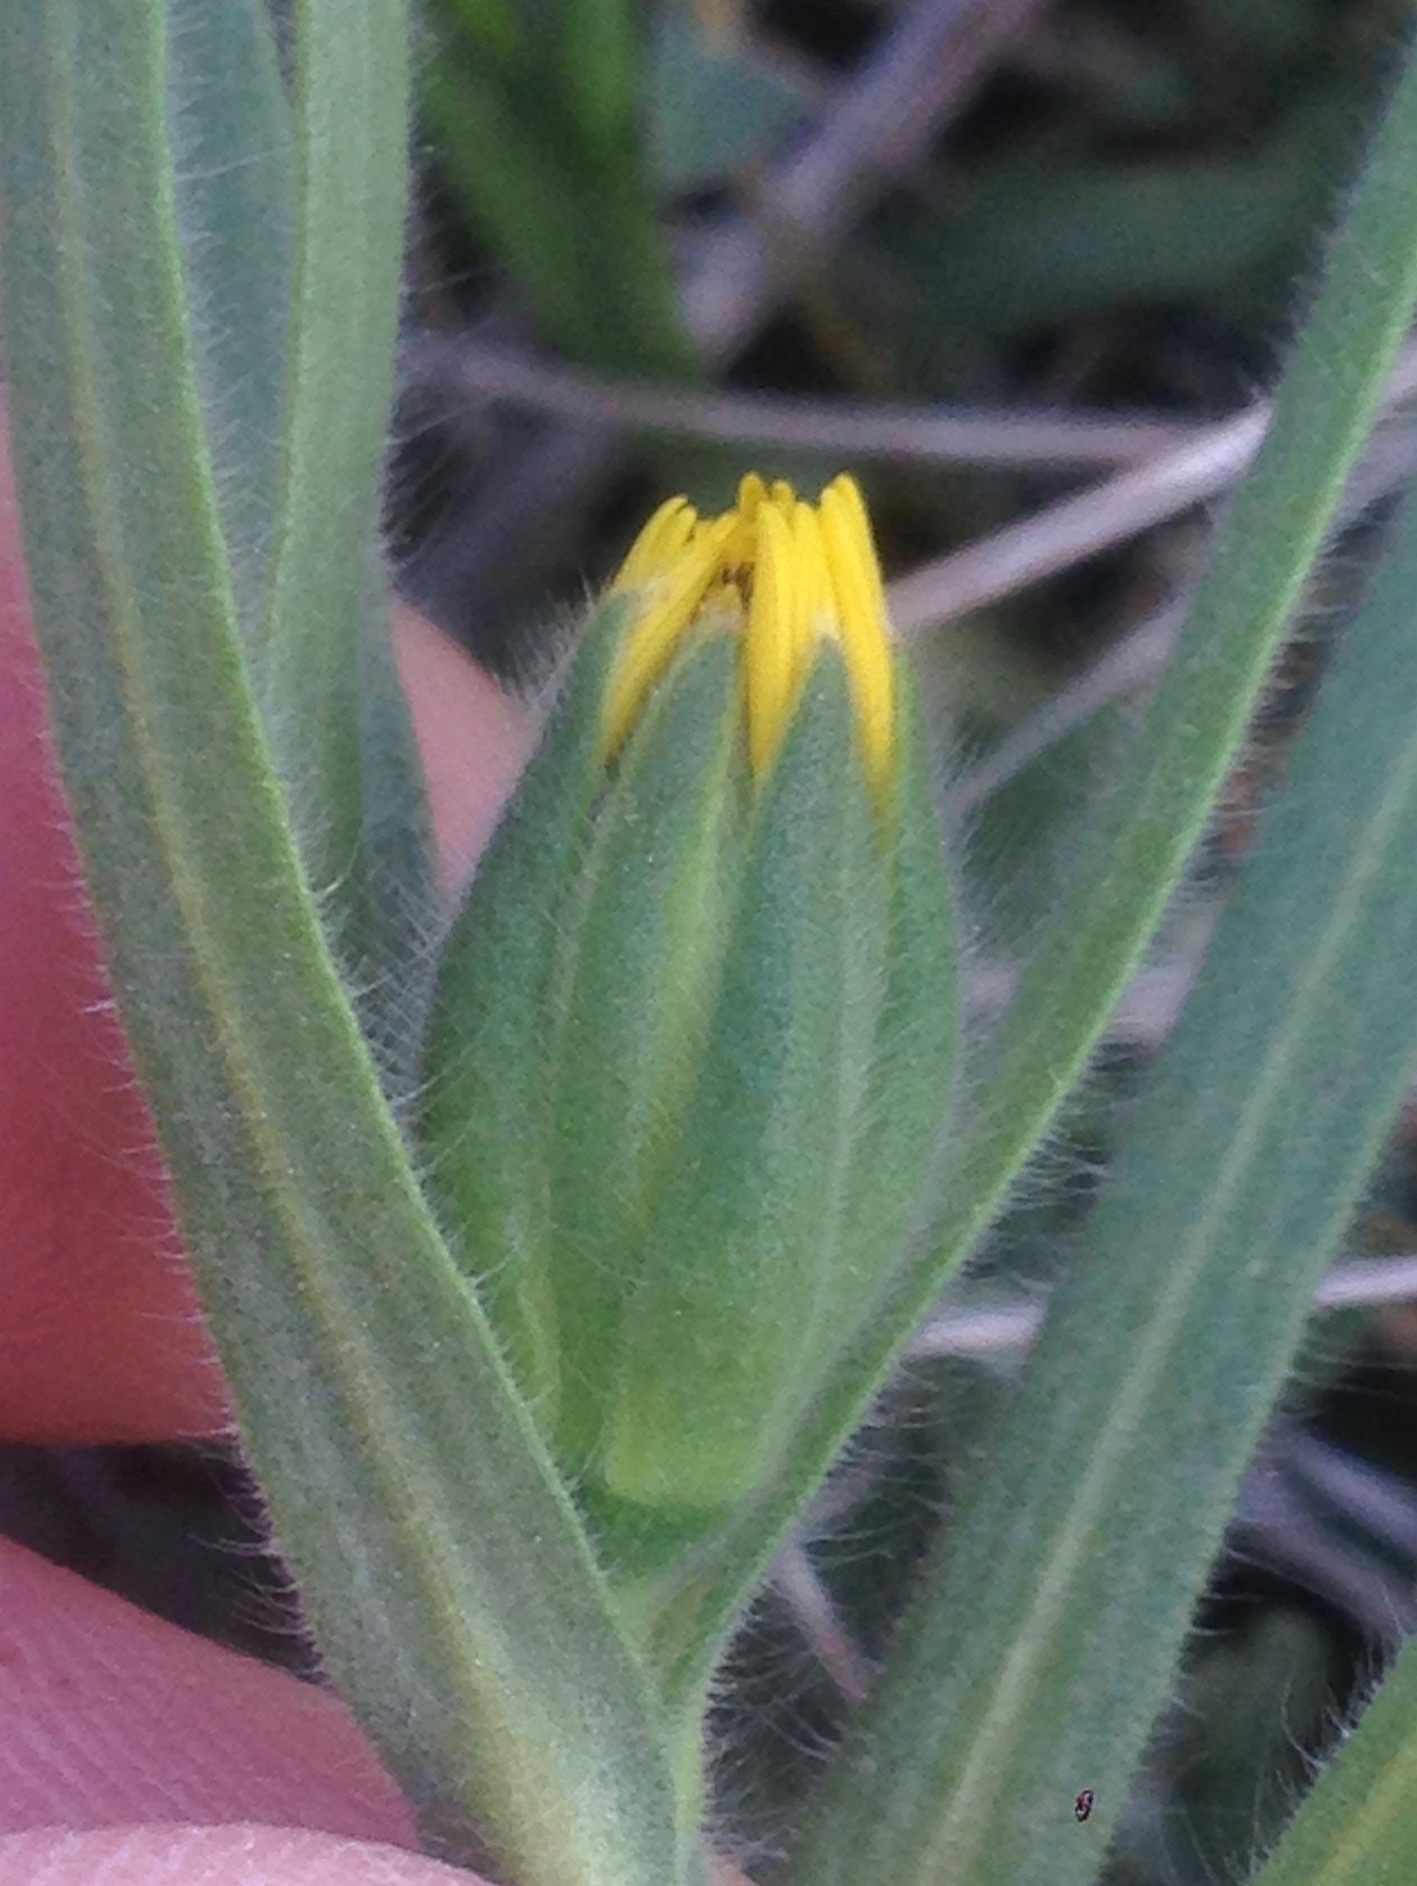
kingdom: Plantae
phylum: Tracheophyta
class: Magnoliopsida
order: Asterales
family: Asteraceae
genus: Achyrachaena
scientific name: Achyrachaena mollis
